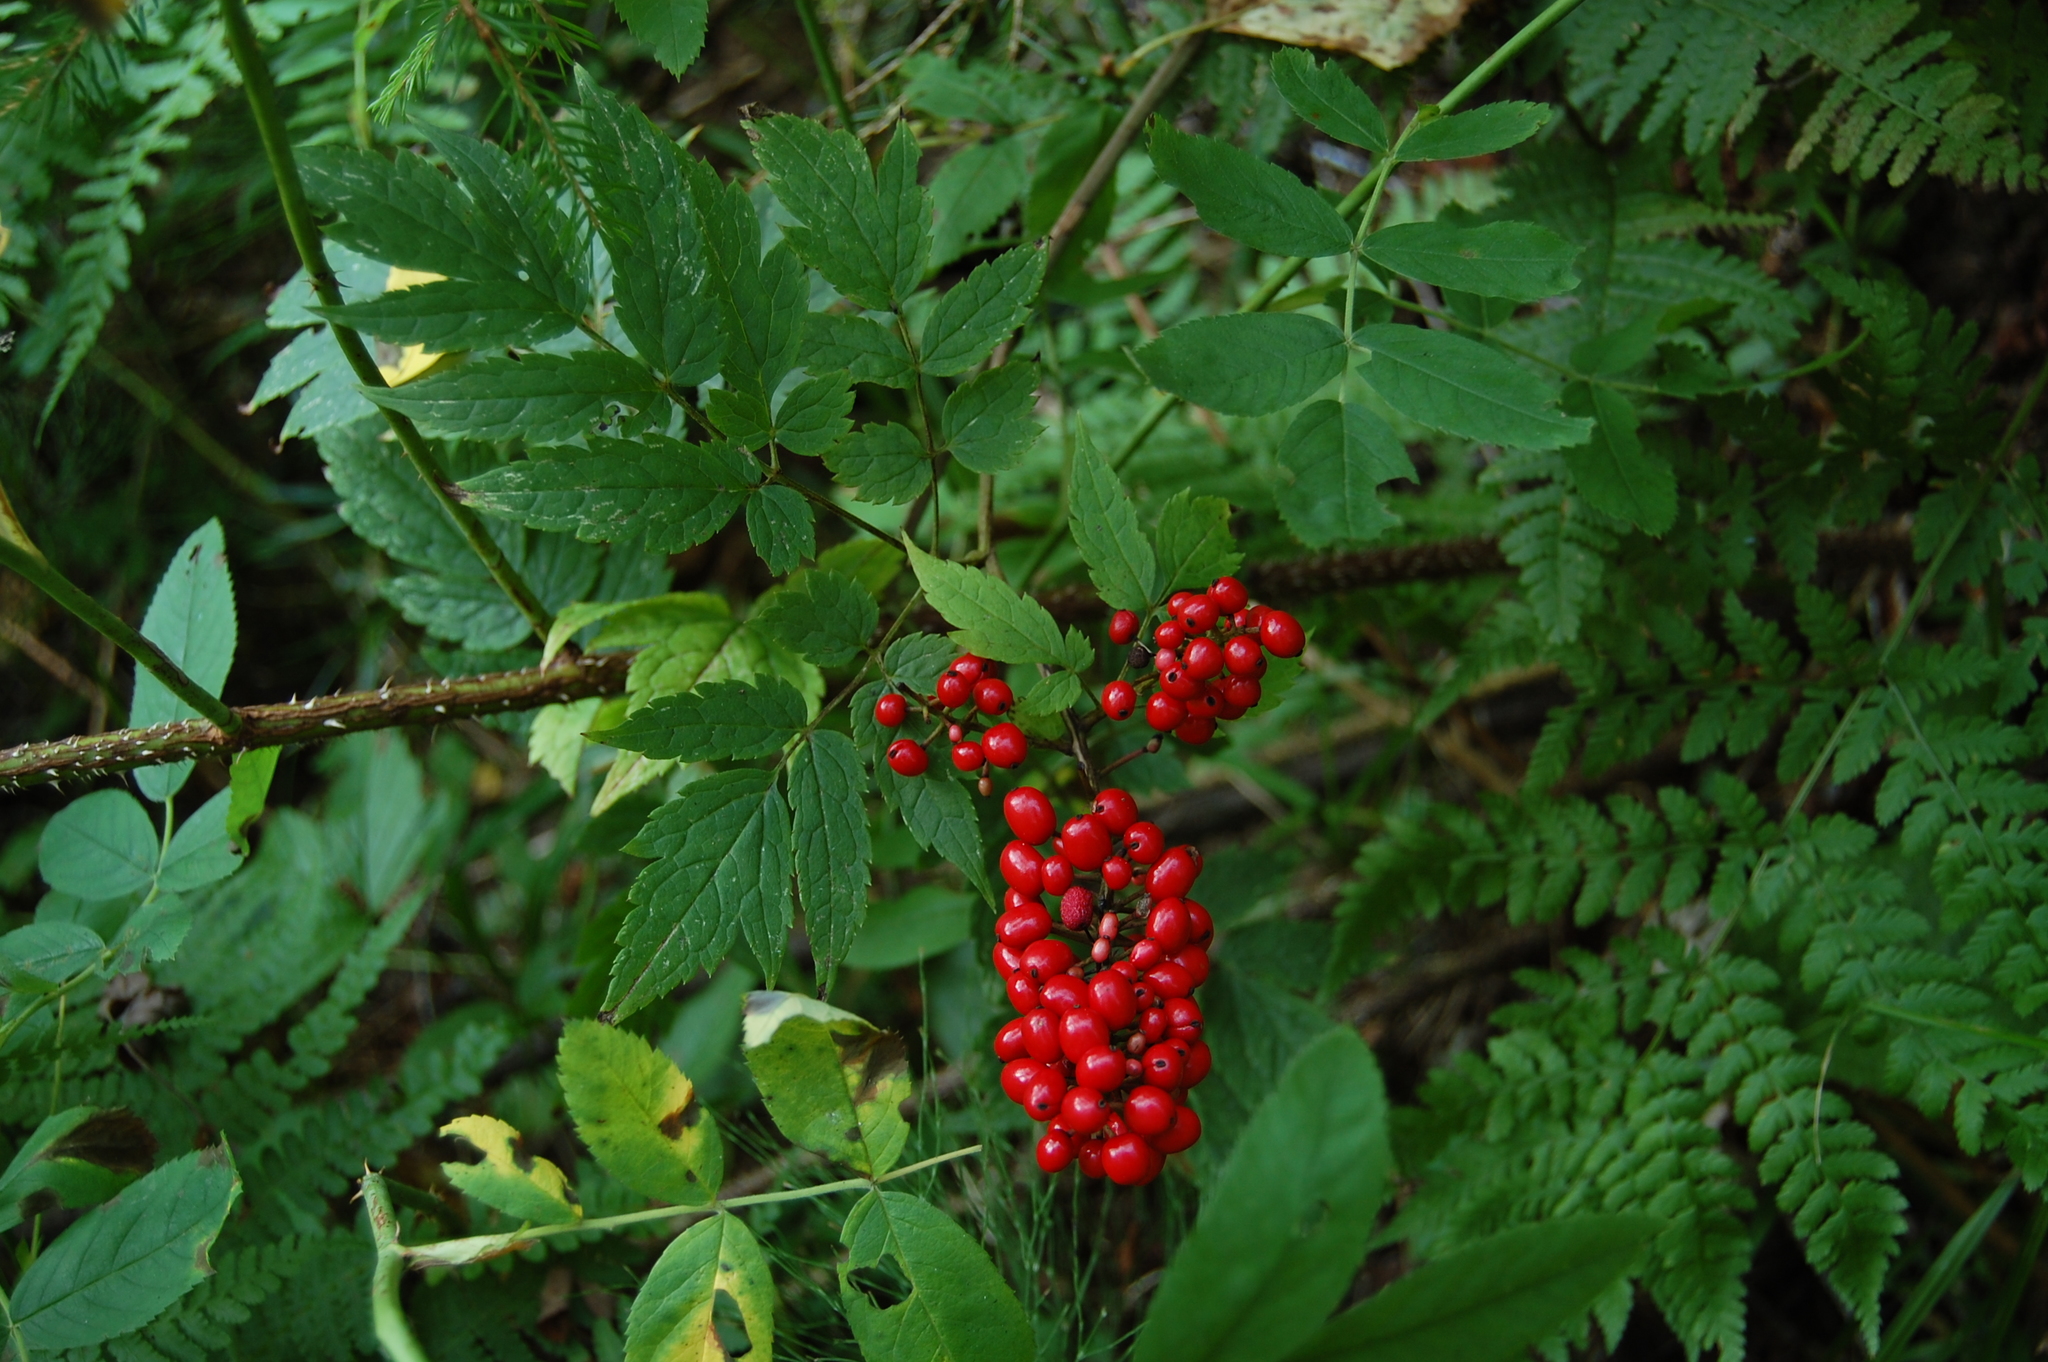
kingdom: Plantae
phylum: Tracheophyta
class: Magnoliopsida
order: Ranunculales
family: Ranunculaceae
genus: Actaea
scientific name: Actaea erythrocarpa
